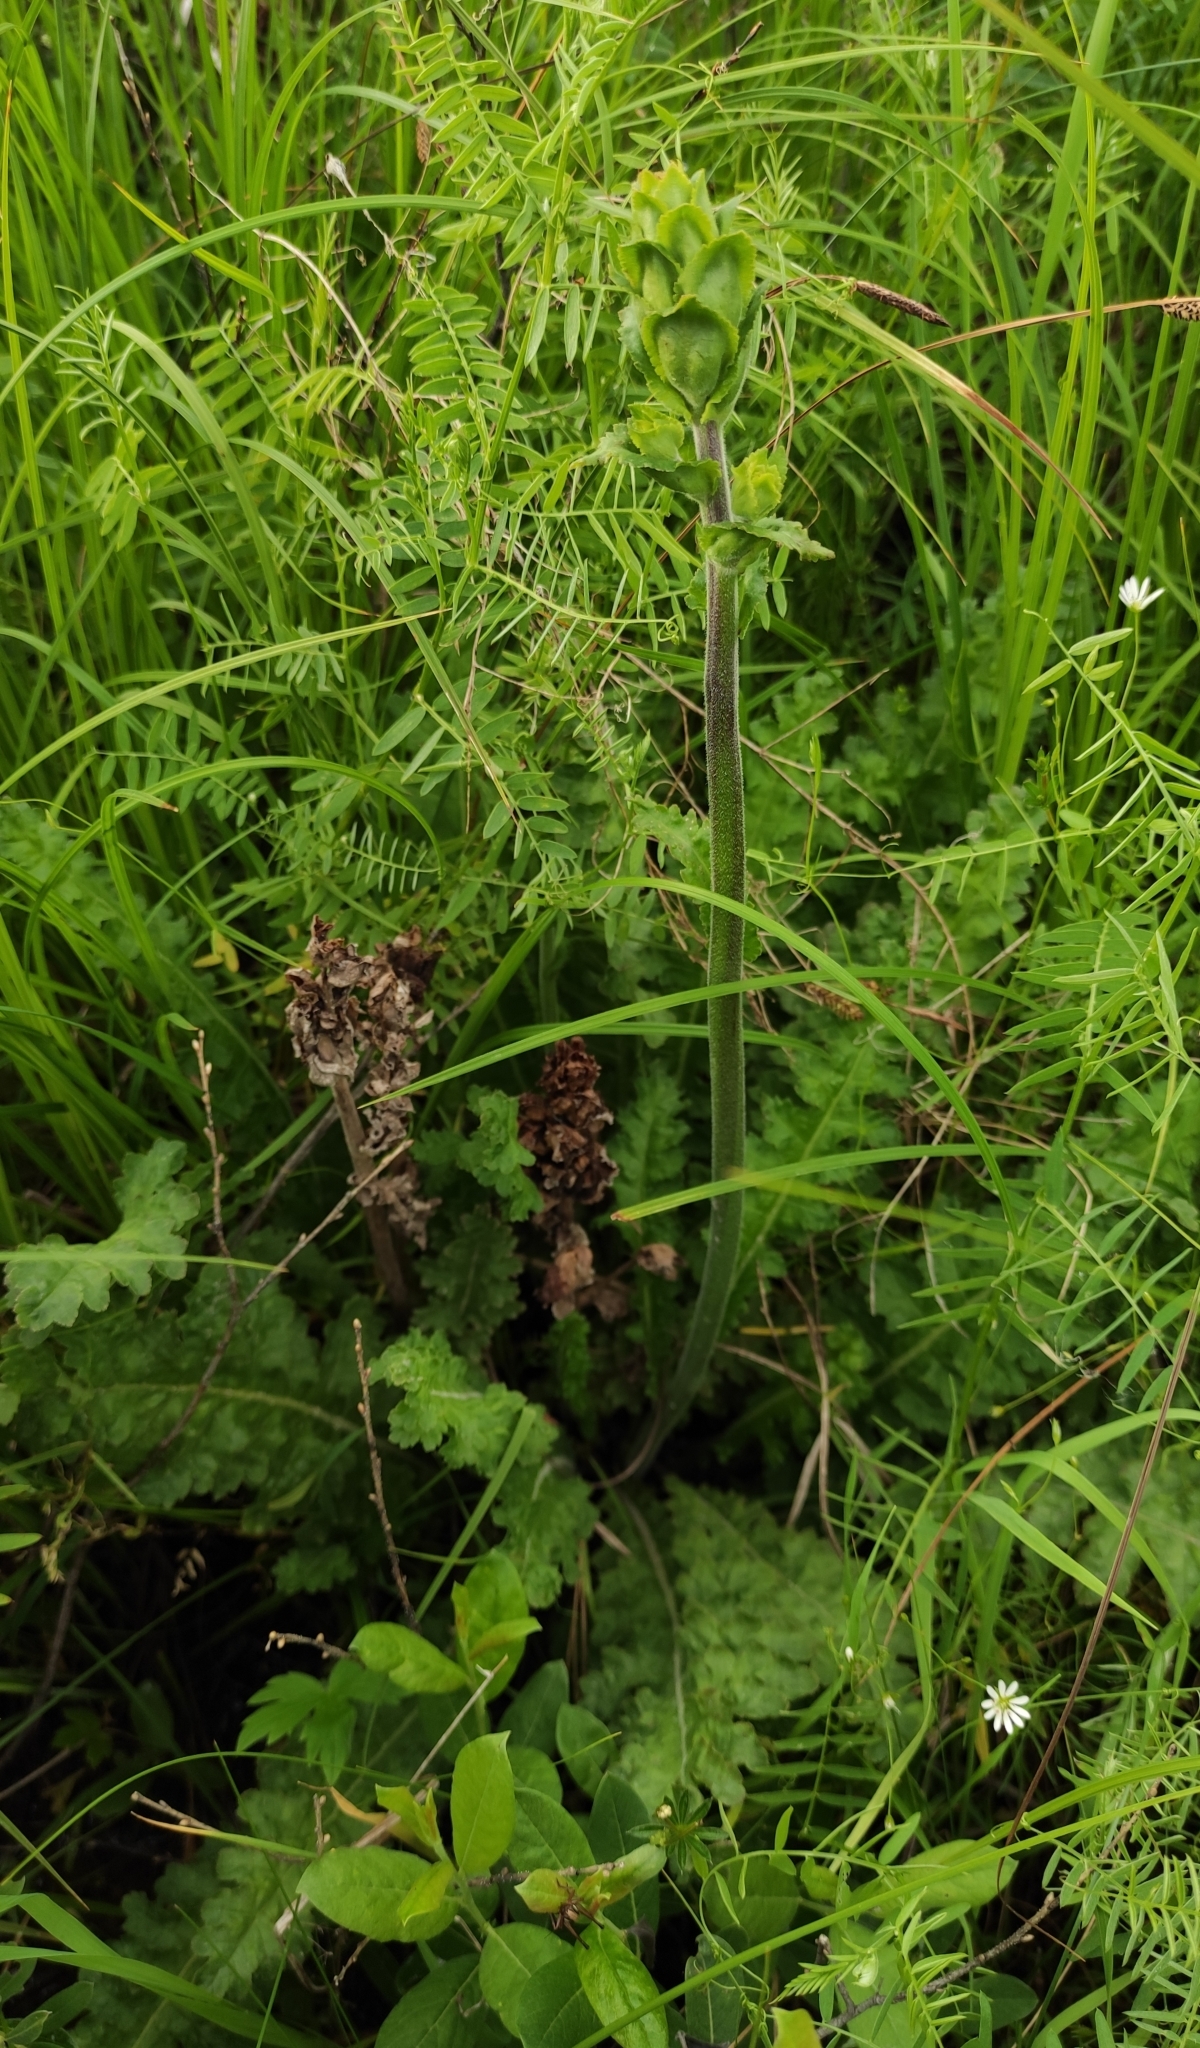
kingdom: Plantae
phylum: Tracheophyta
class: Magnoliopsida
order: Lamiales
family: Orobanchaceae
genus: Pedicularis
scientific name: Pedicularis sceptrum-carolinum
